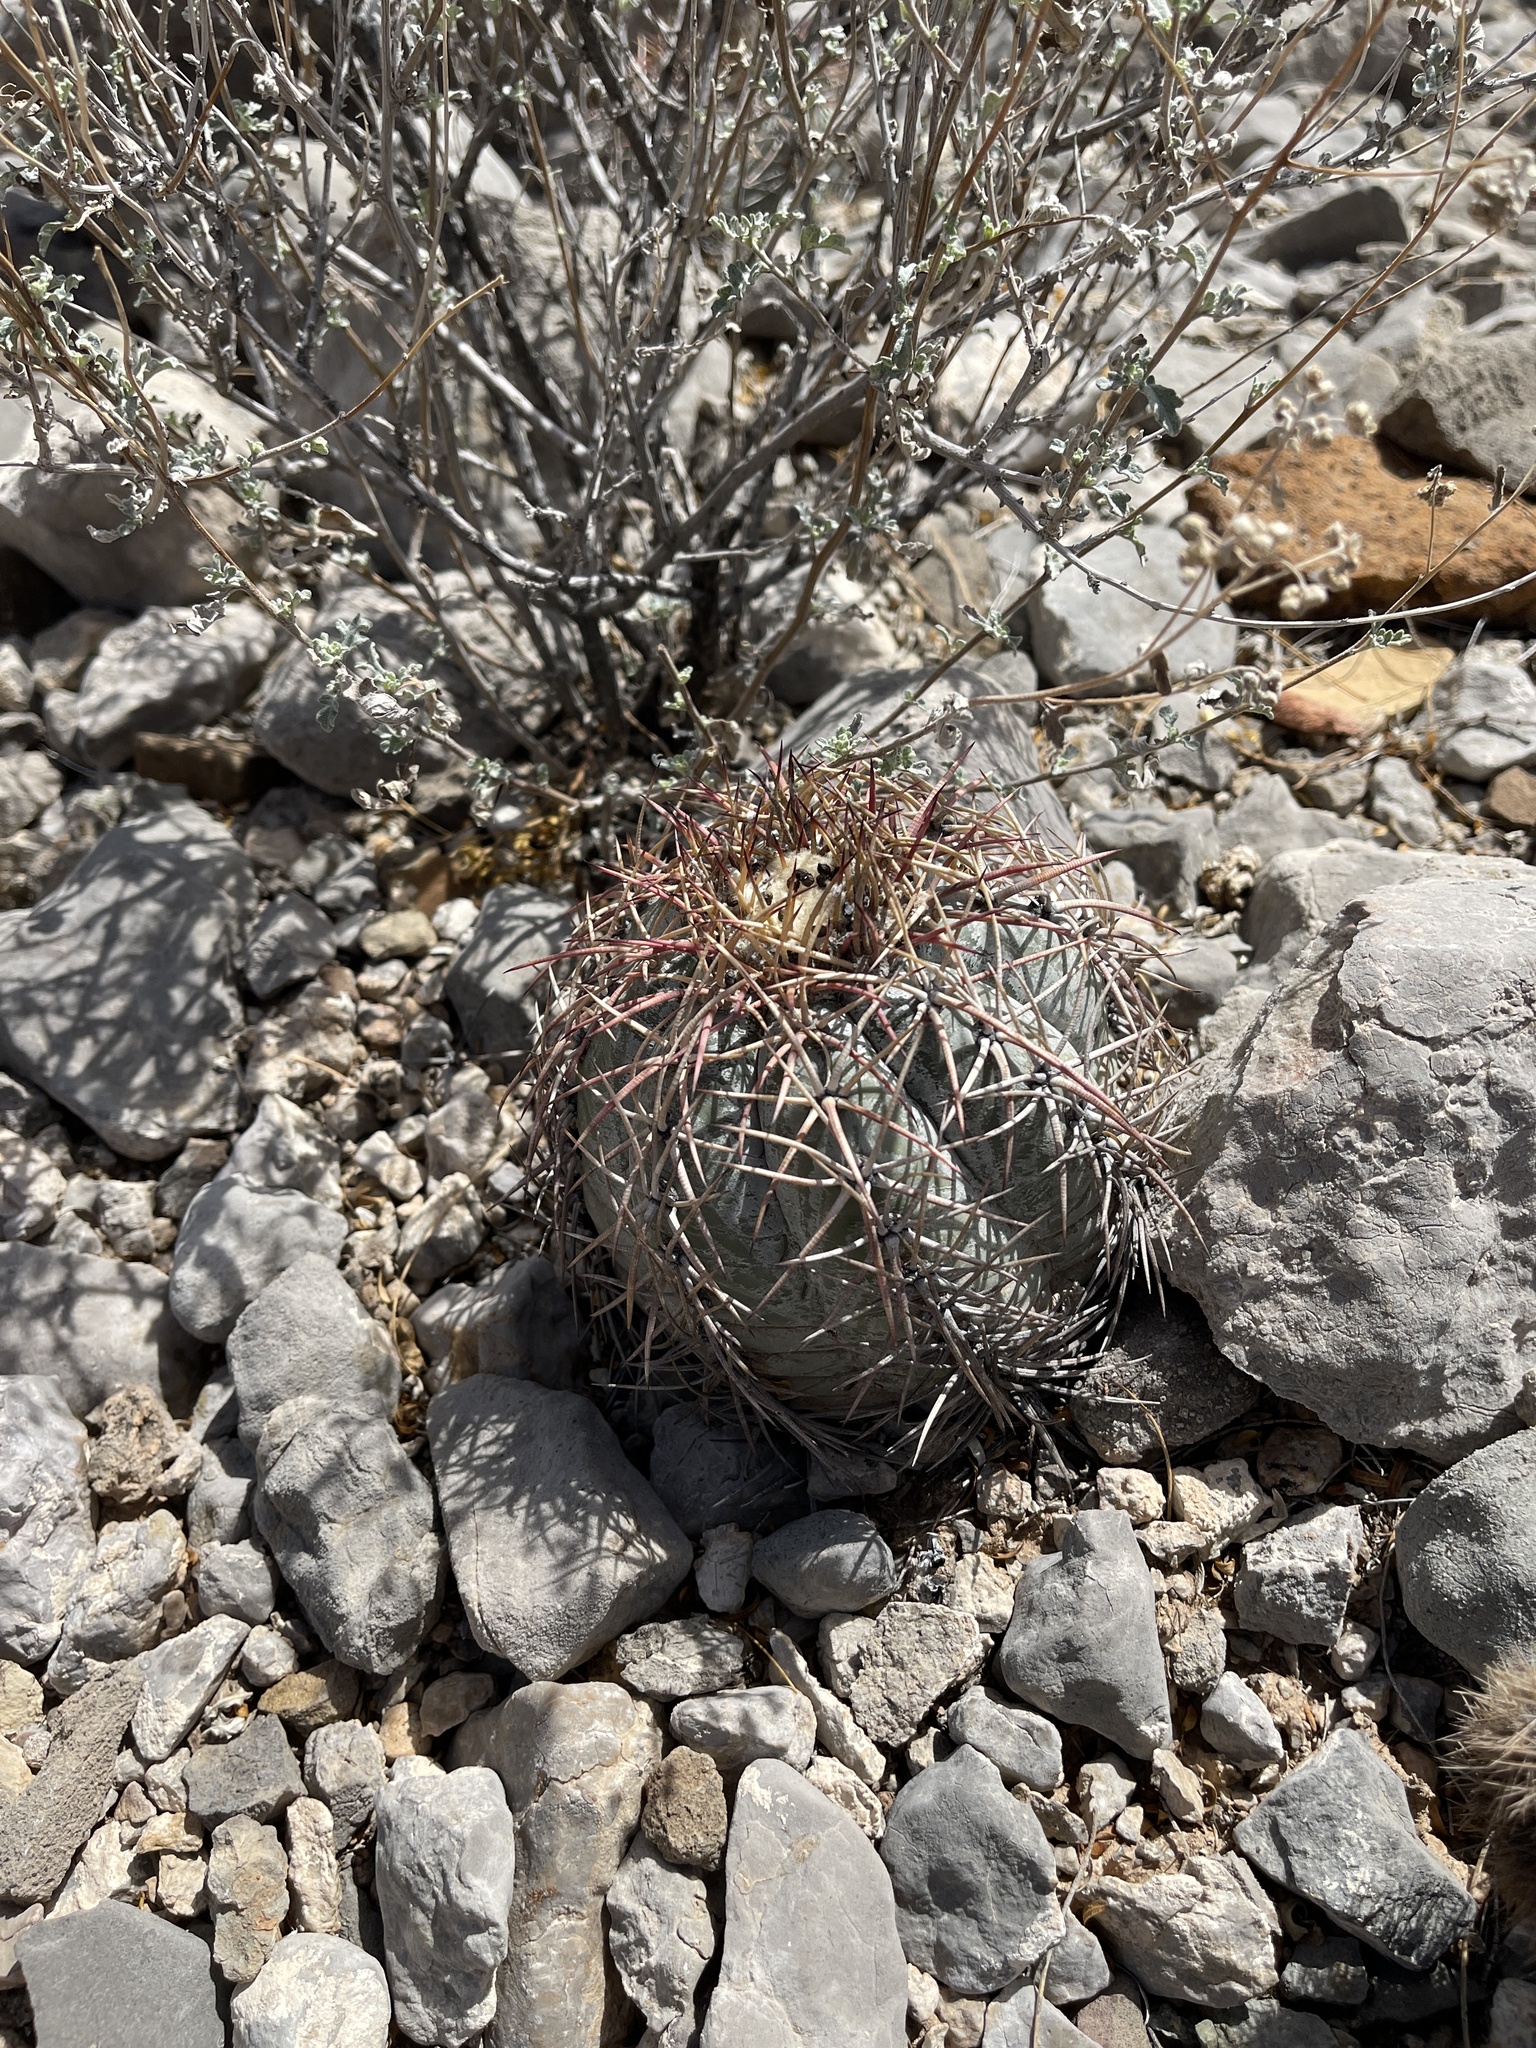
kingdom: Plantae
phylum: Tracheophyta
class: Magnoliopsida
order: Caryophyllales
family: Cactaceae
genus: Echinocactus
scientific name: Echinocactus horizonthalonius
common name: Devilshead
